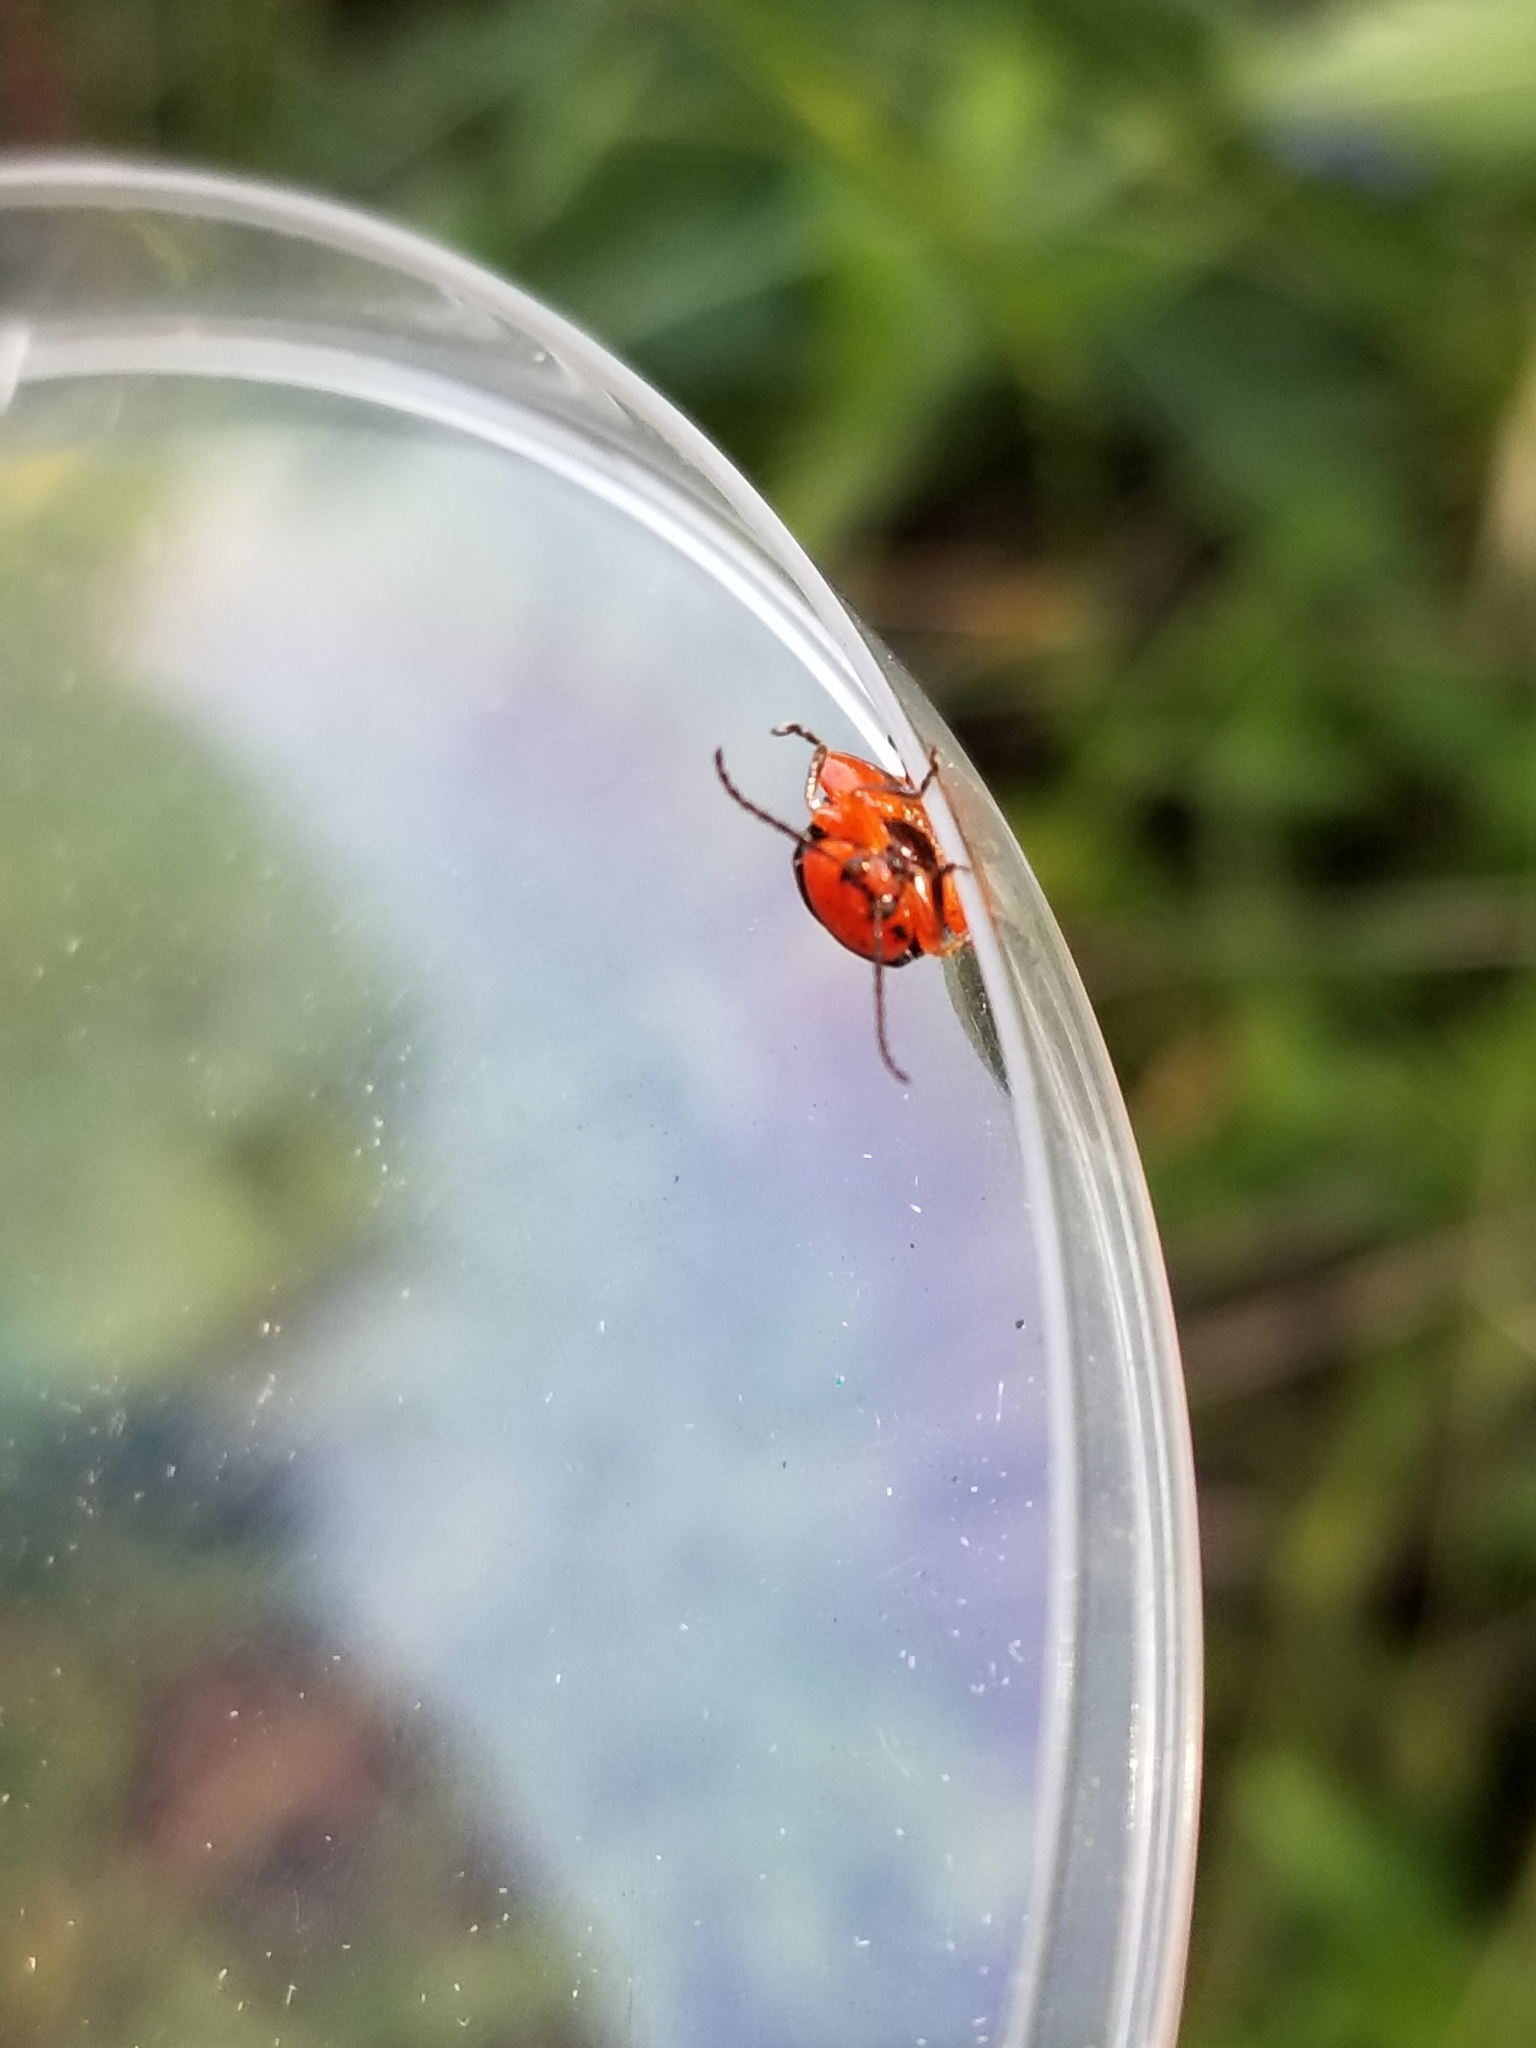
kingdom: Animalia
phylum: Arthropoda
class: Insecta
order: Coleoptera
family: Chrysomelidae
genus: Asphaera
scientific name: Asphaera lustrans
